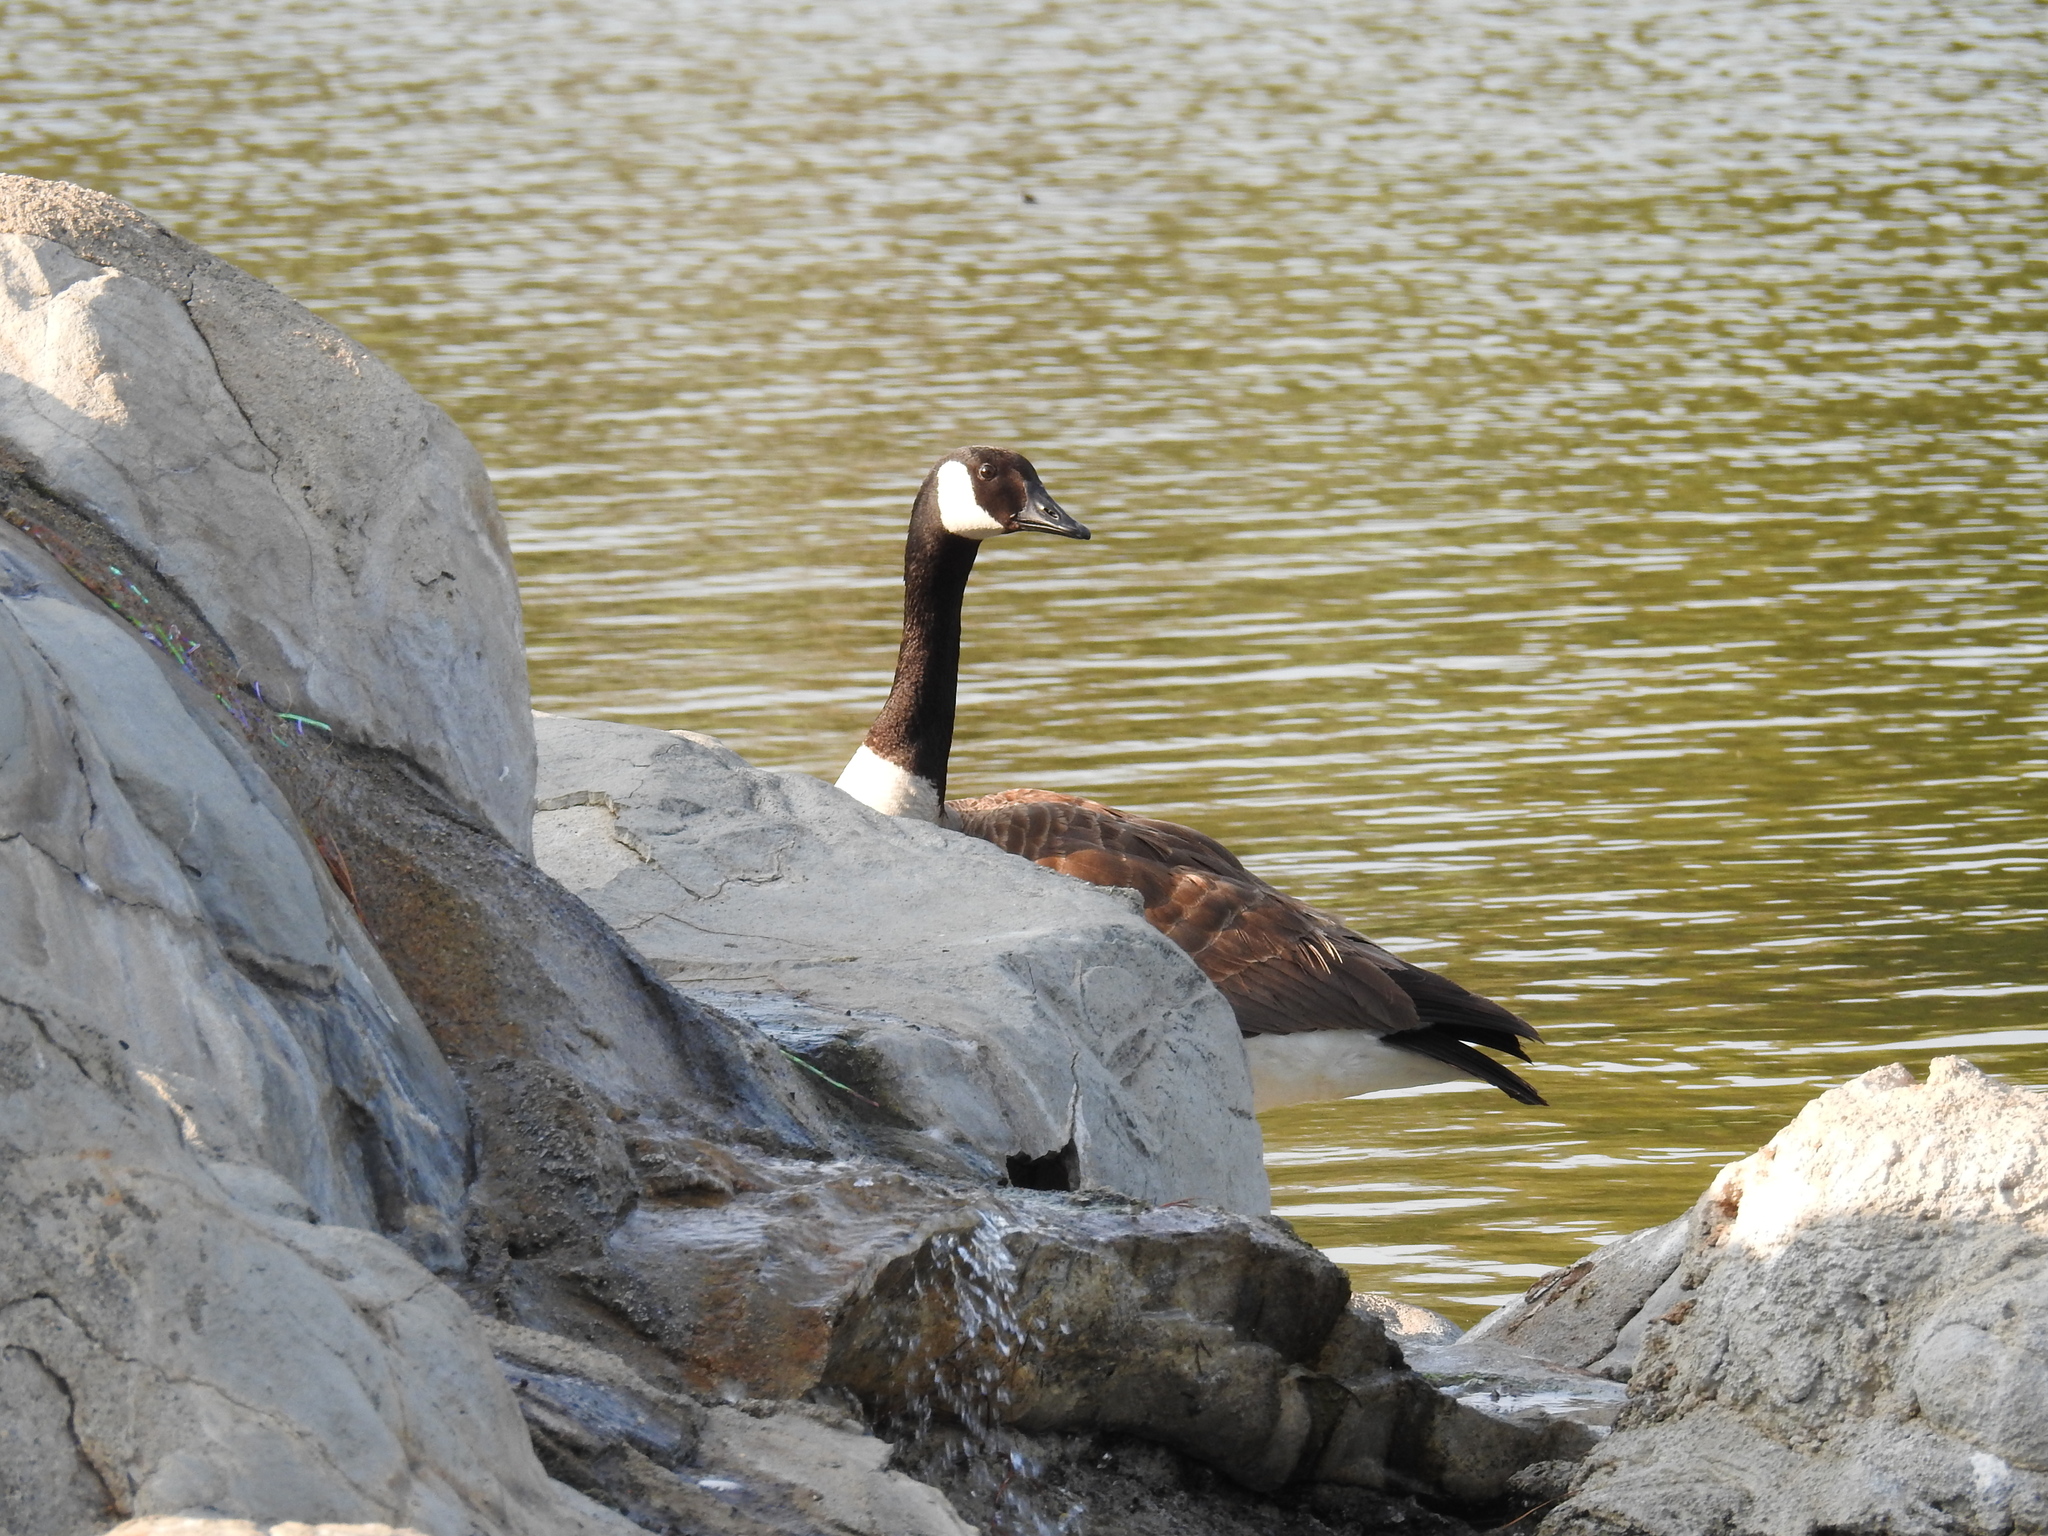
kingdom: Animalia
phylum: Chordata
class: Aves
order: Anseriformes
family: Anatidae
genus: Branta
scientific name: Branta canadensis
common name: Canada goose
